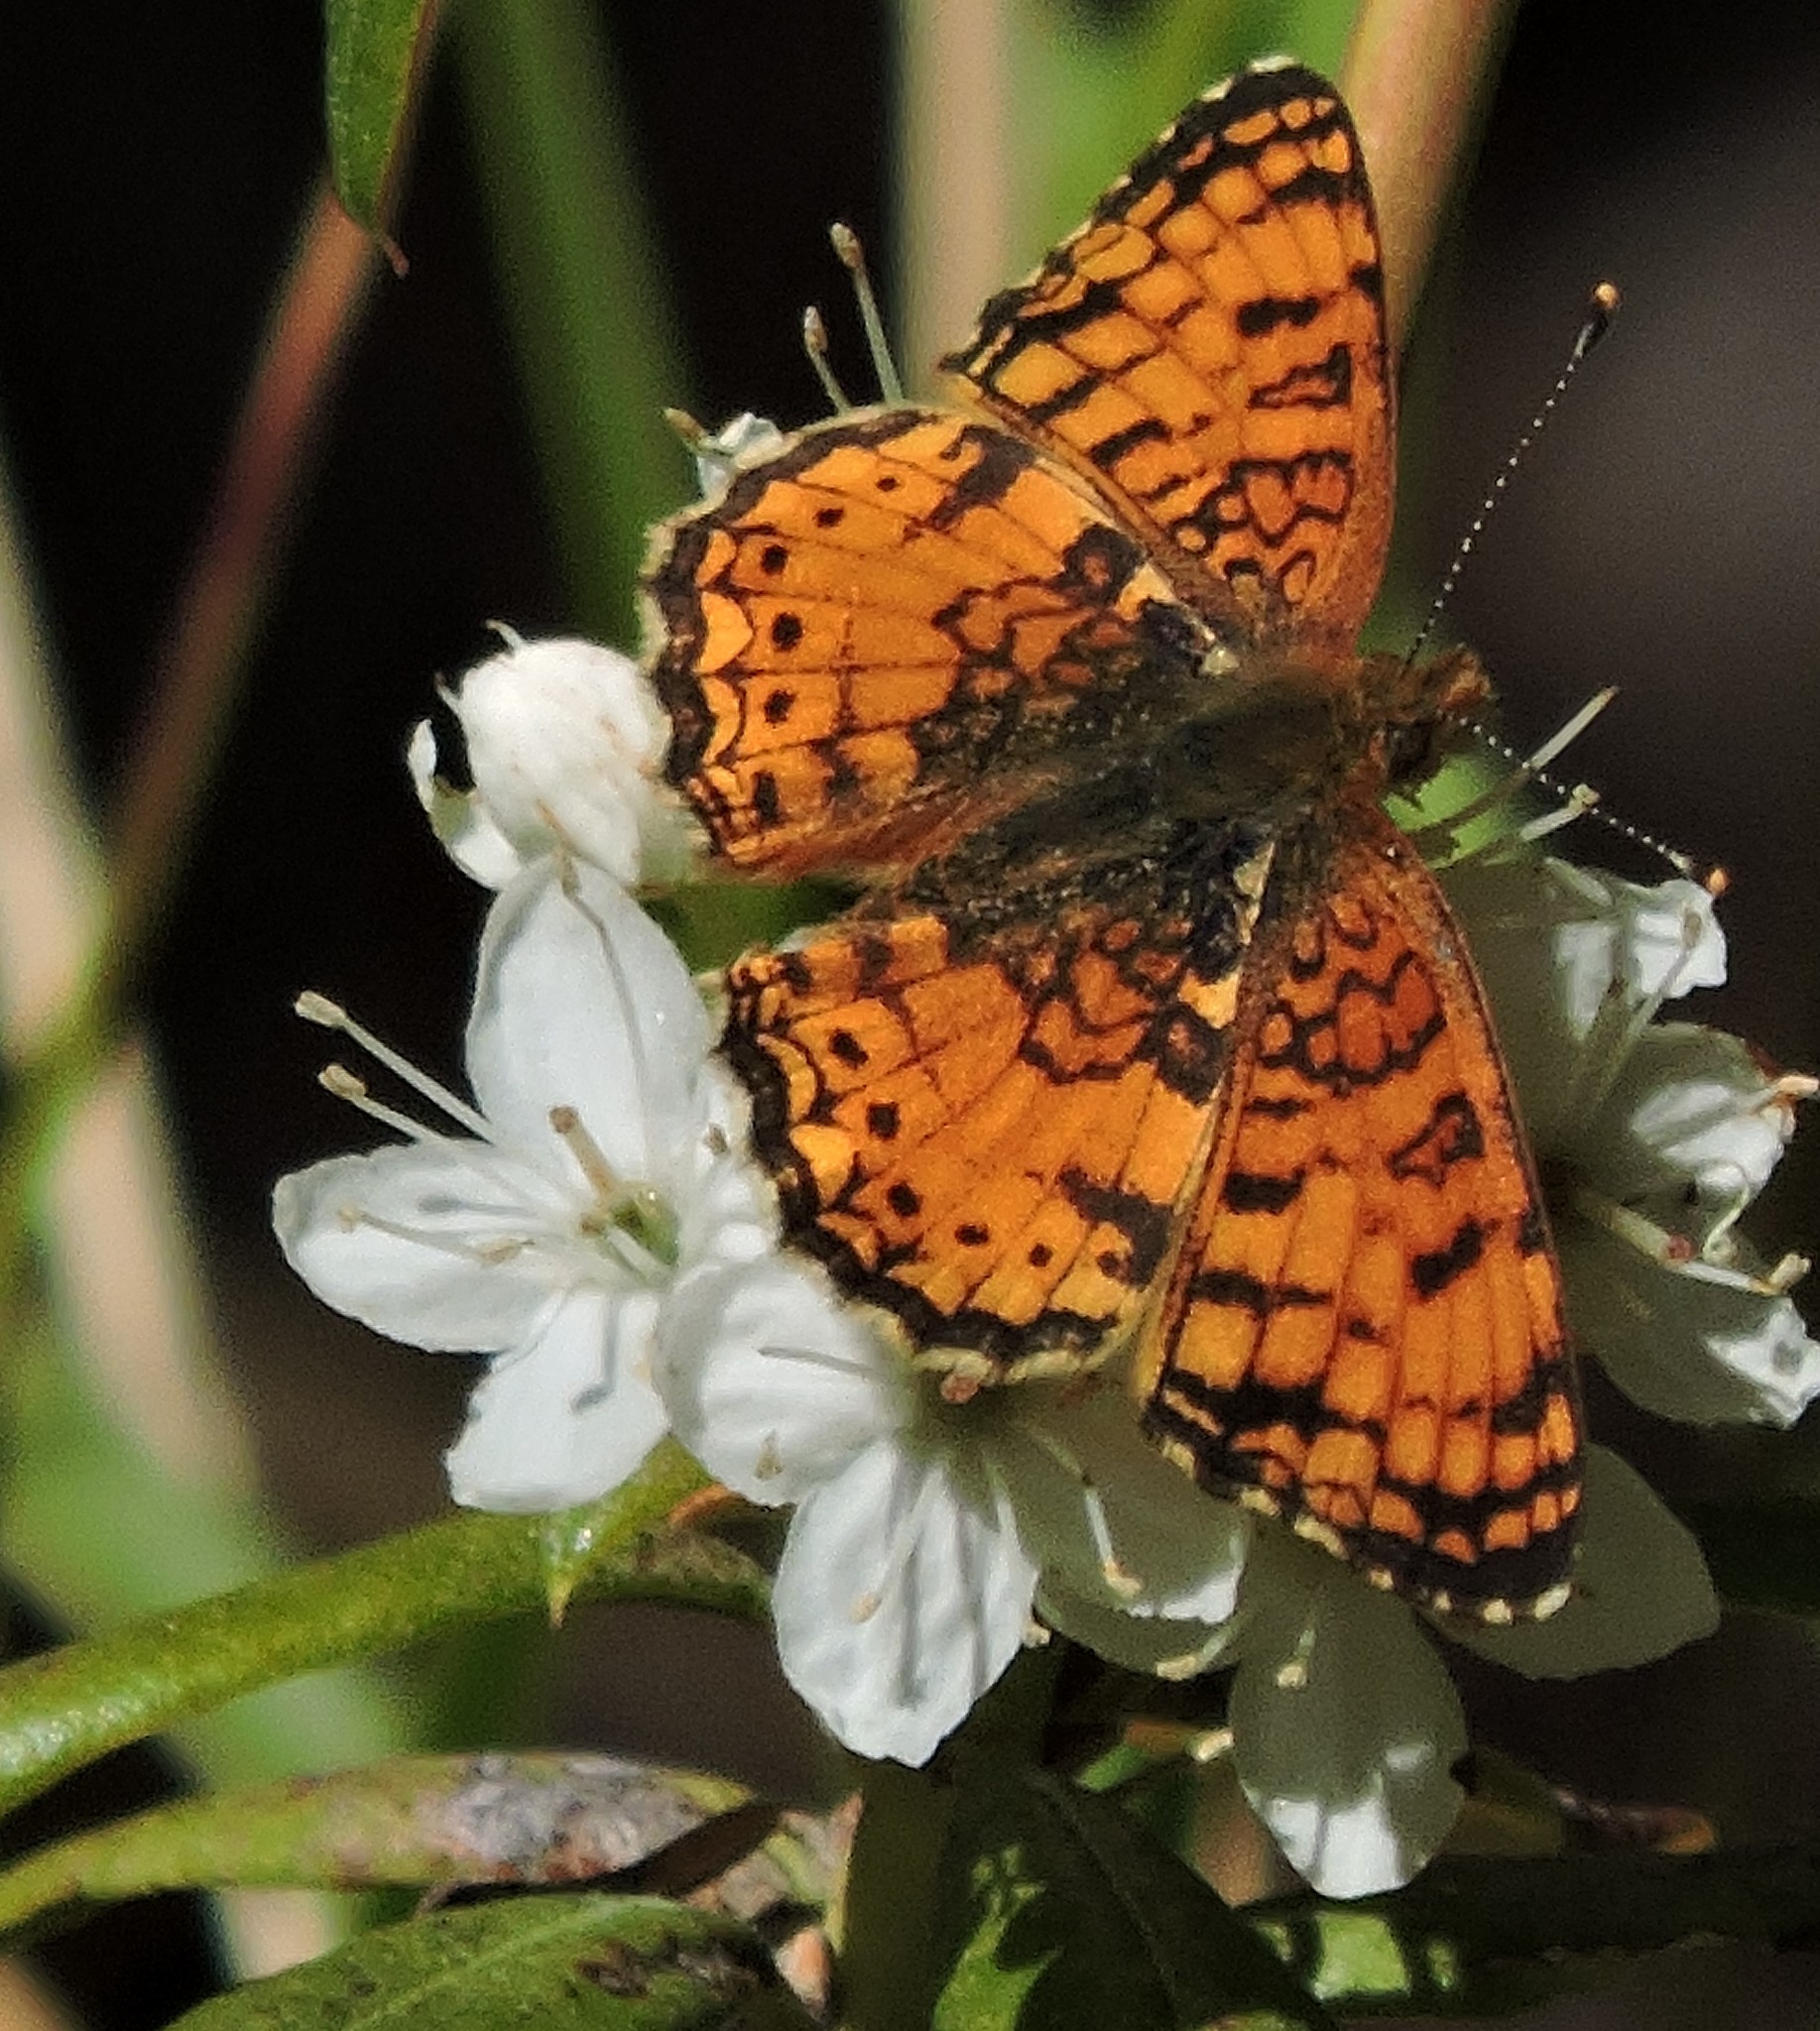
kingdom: Animalia
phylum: Arthropoda
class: Insecta
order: Lepidoptera
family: Nymphalidae
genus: Eresia
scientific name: Eresia aveyrona
